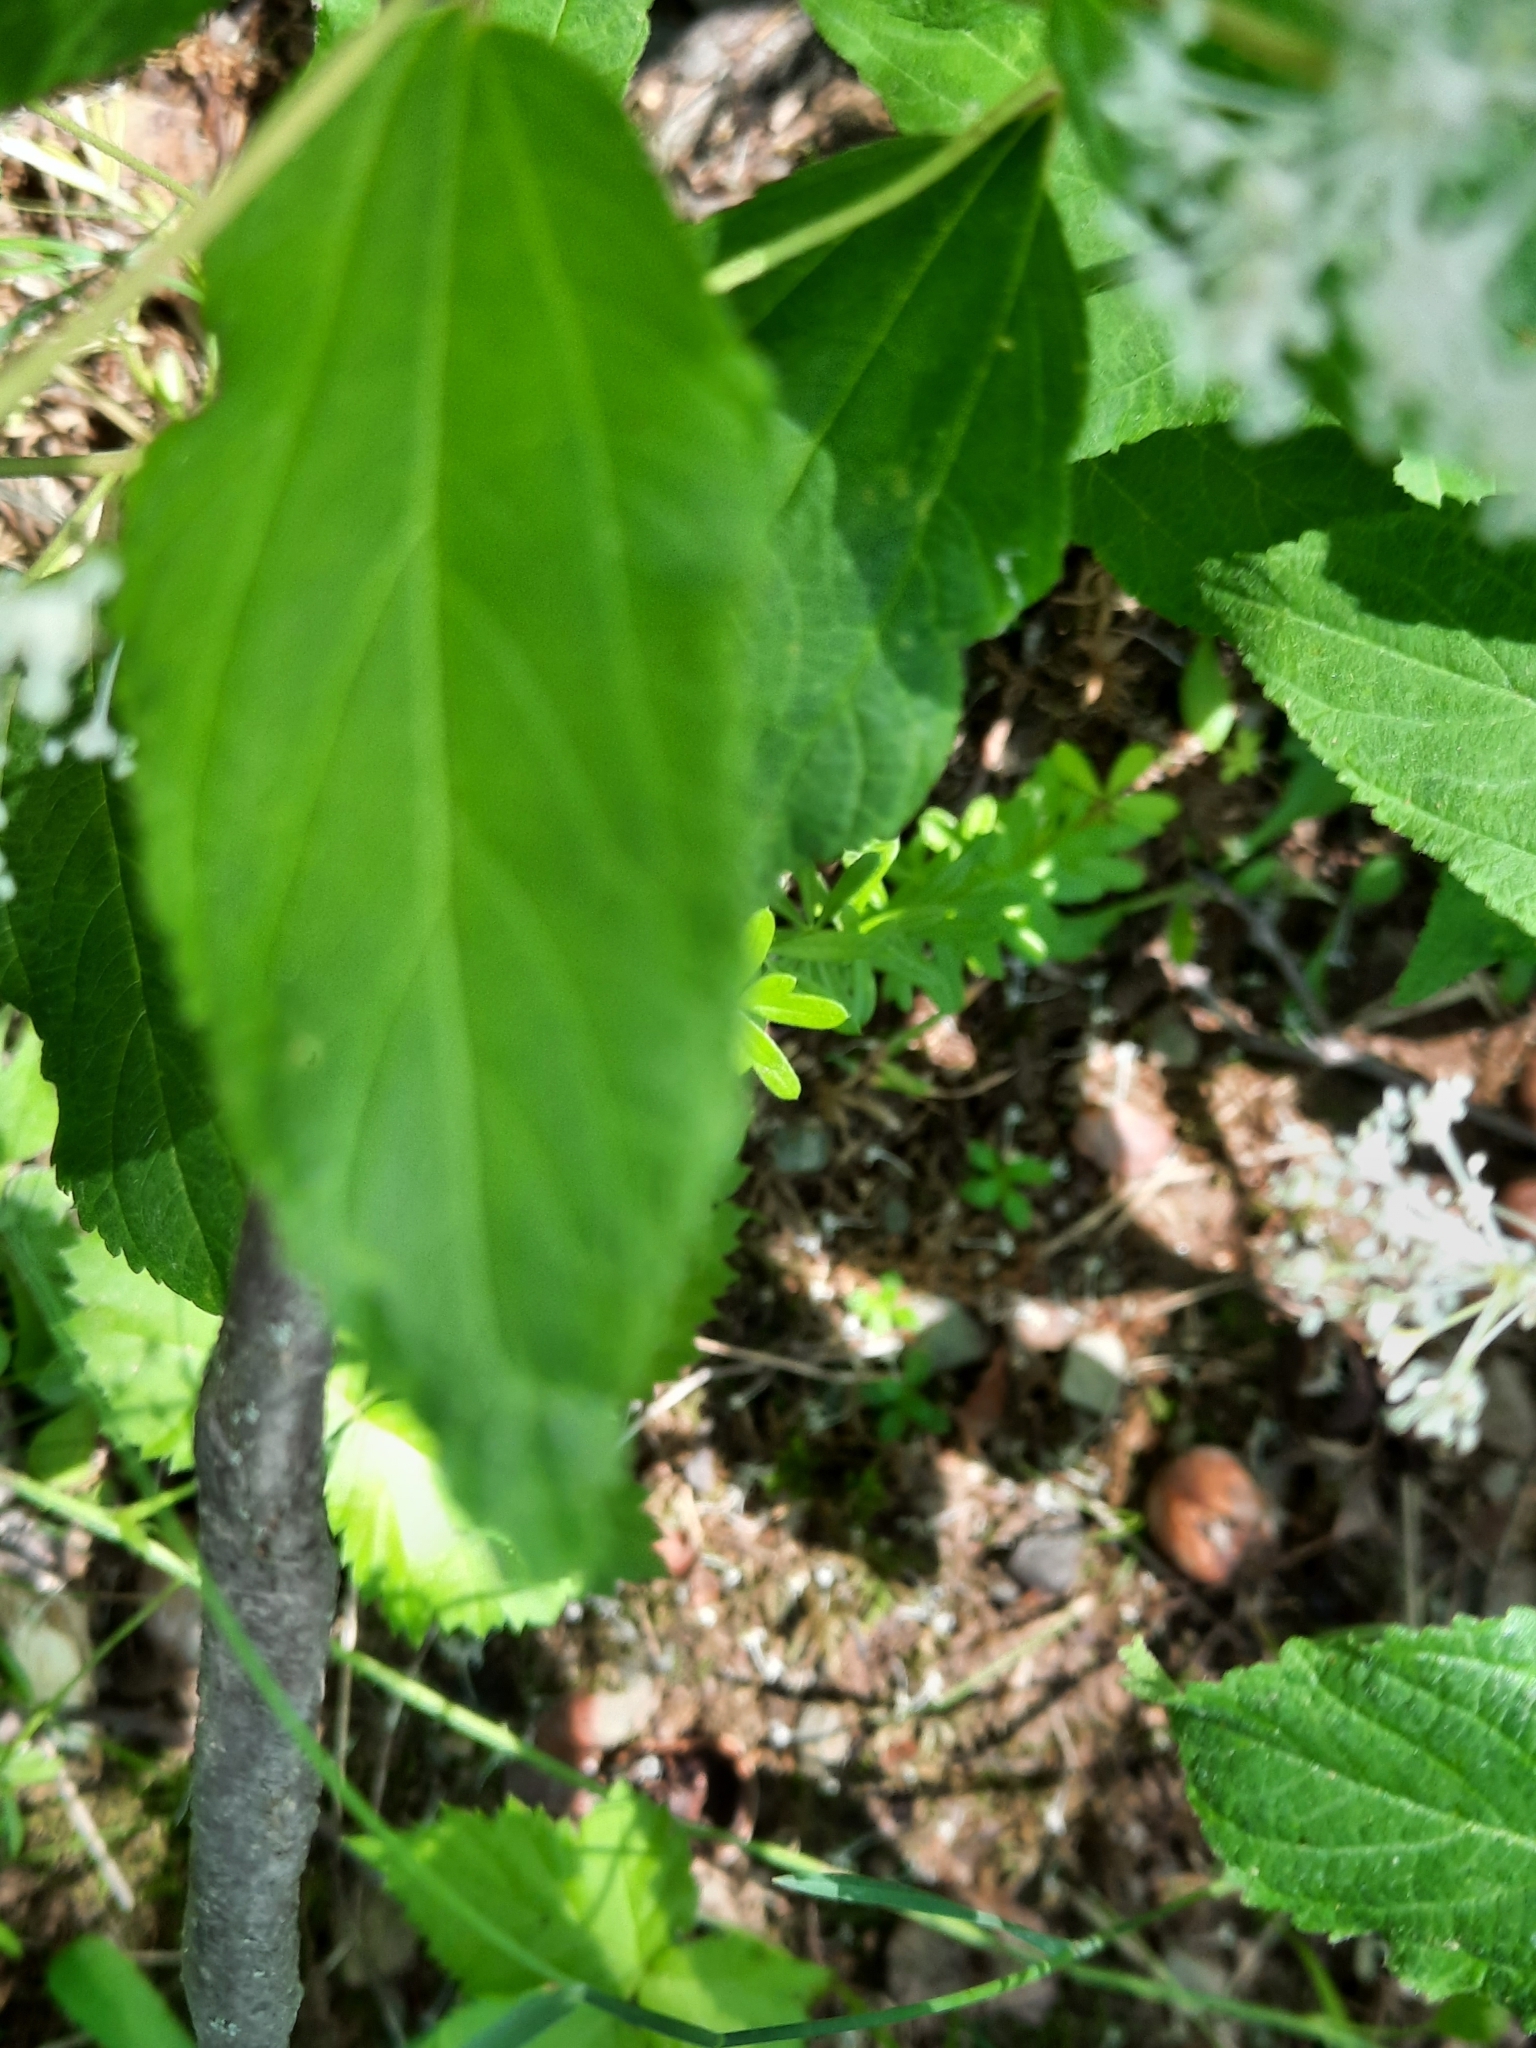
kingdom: Plantae
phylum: Tracheophyta
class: Magnoliopsida
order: Rosales
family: Rhamnaceae
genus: Ceanothus
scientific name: Ceanothus americanus
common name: Redroot
